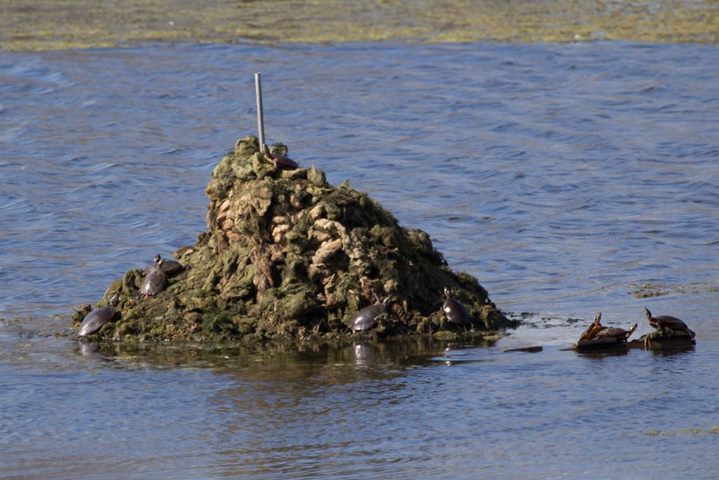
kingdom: Animalia
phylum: Chordata
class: Testudines
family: Emydidae
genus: Chrysemys
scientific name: Chrysemys picta
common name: Painted turtle
